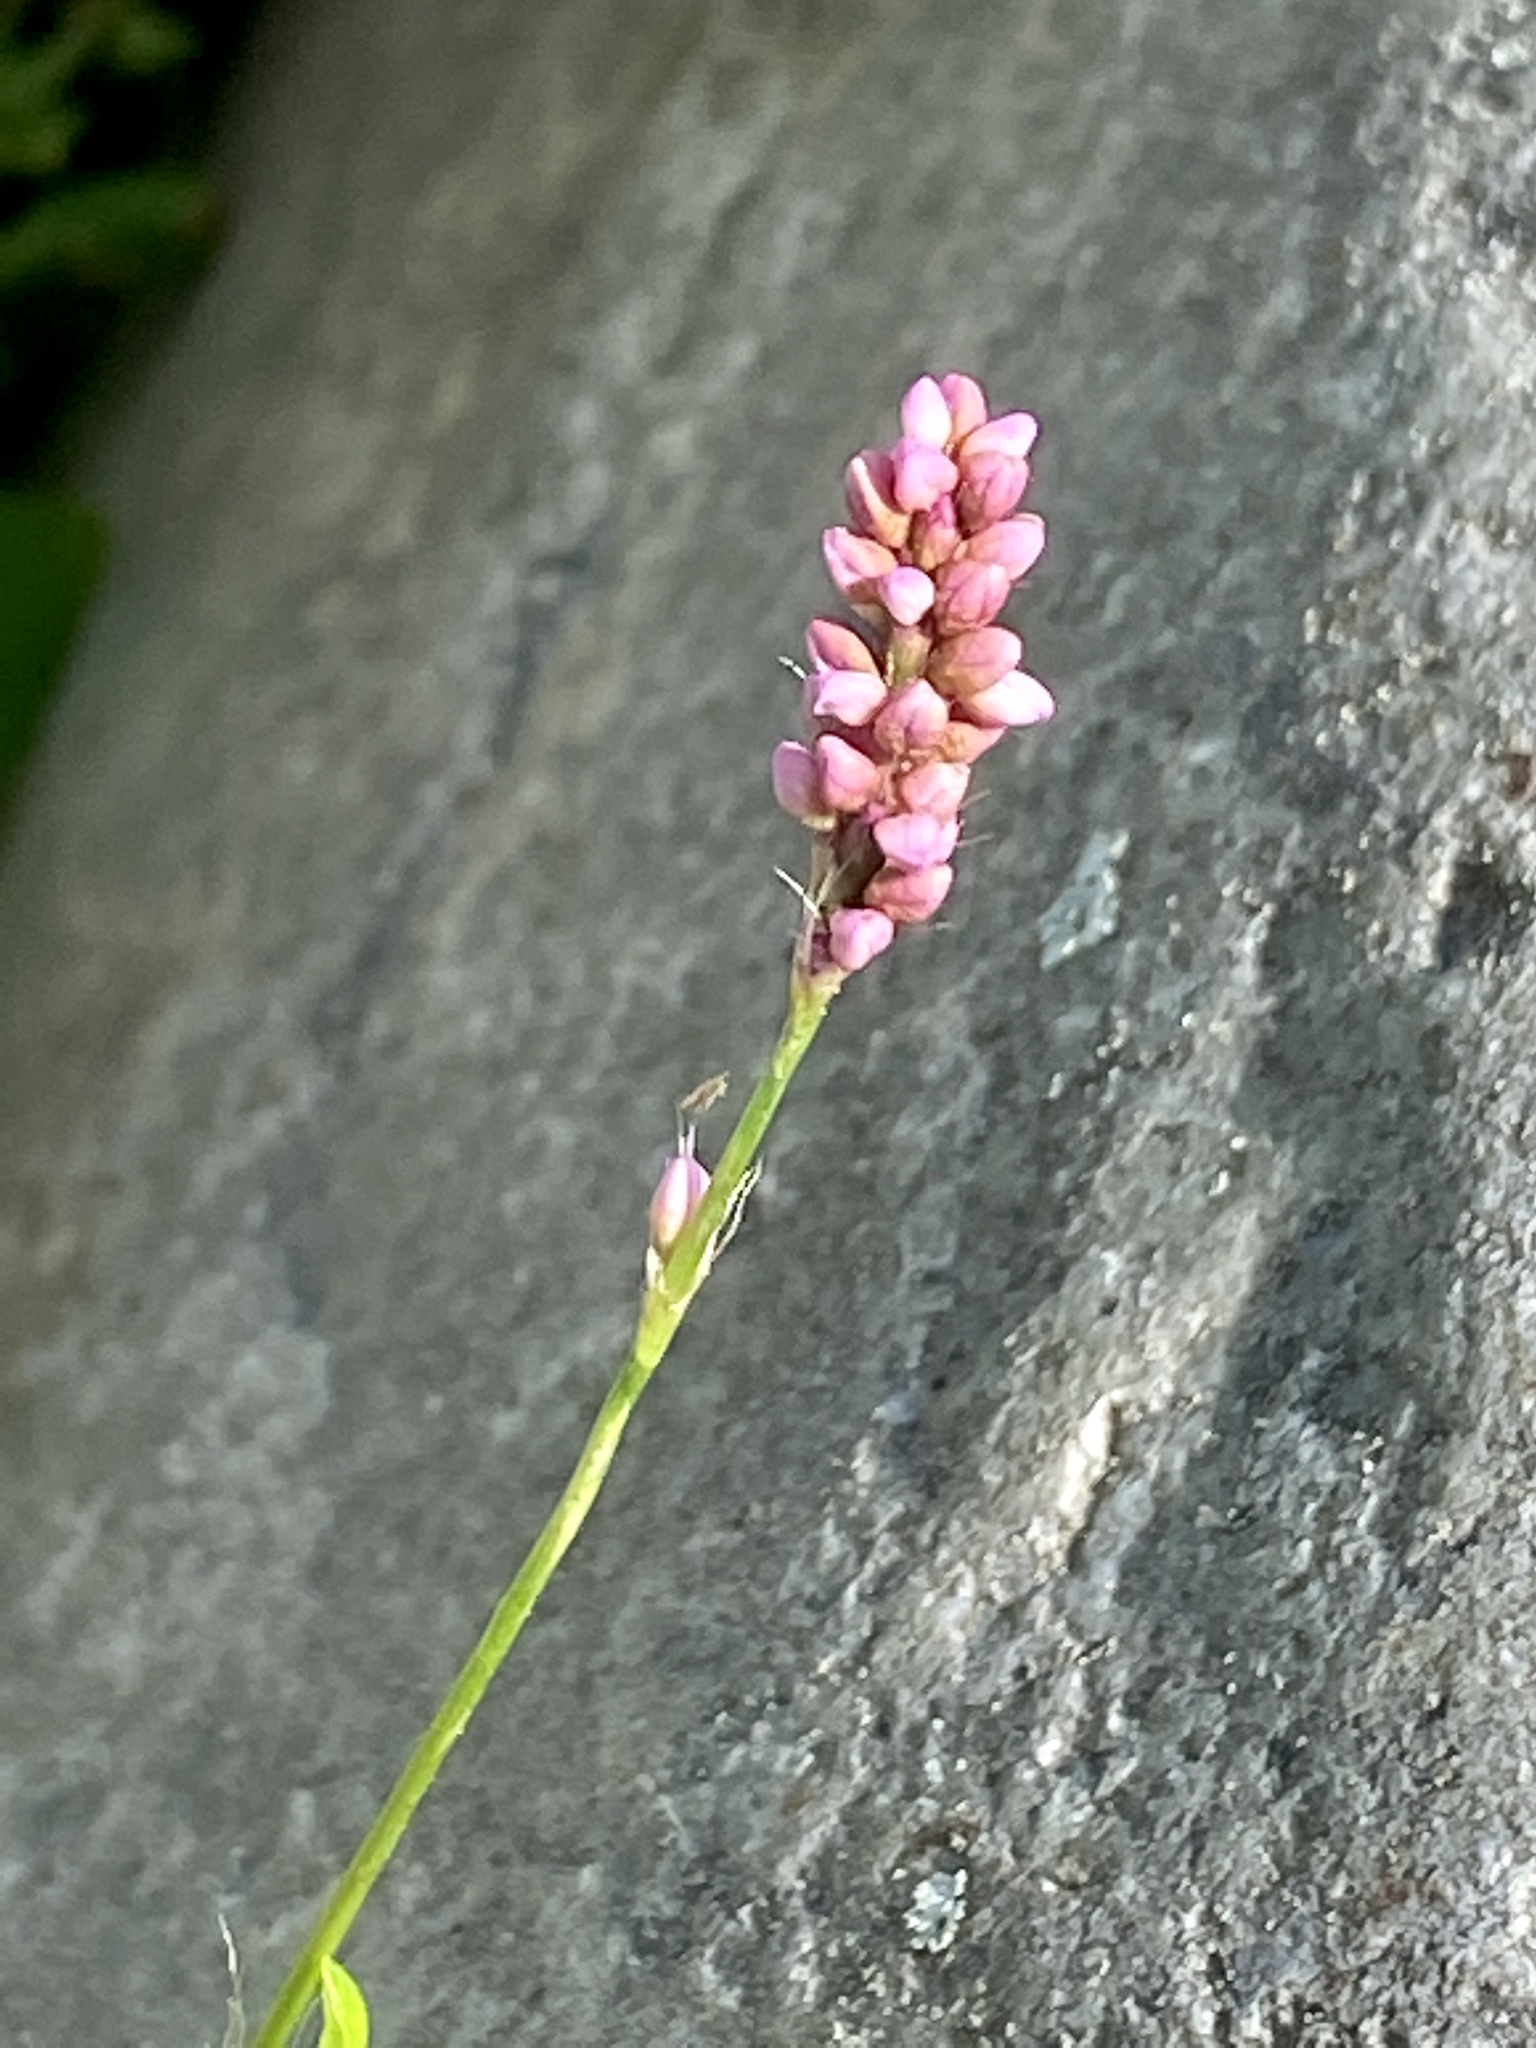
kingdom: Plantae
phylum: Tracheophyta
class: Magnoliopsida
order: Caryophyllales
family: Polygonaceae
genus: Persicaria
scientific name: Persicaria longiseta
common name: Bristly lady's-thumb
